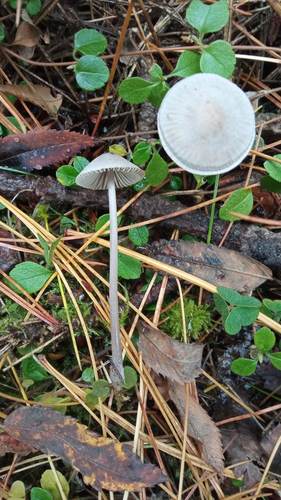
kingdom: Fungi
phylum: Basidiomycota
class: Agaricomycetes
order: Agaricales
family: Mycenaceae
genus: Mycena
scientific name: Mycena
